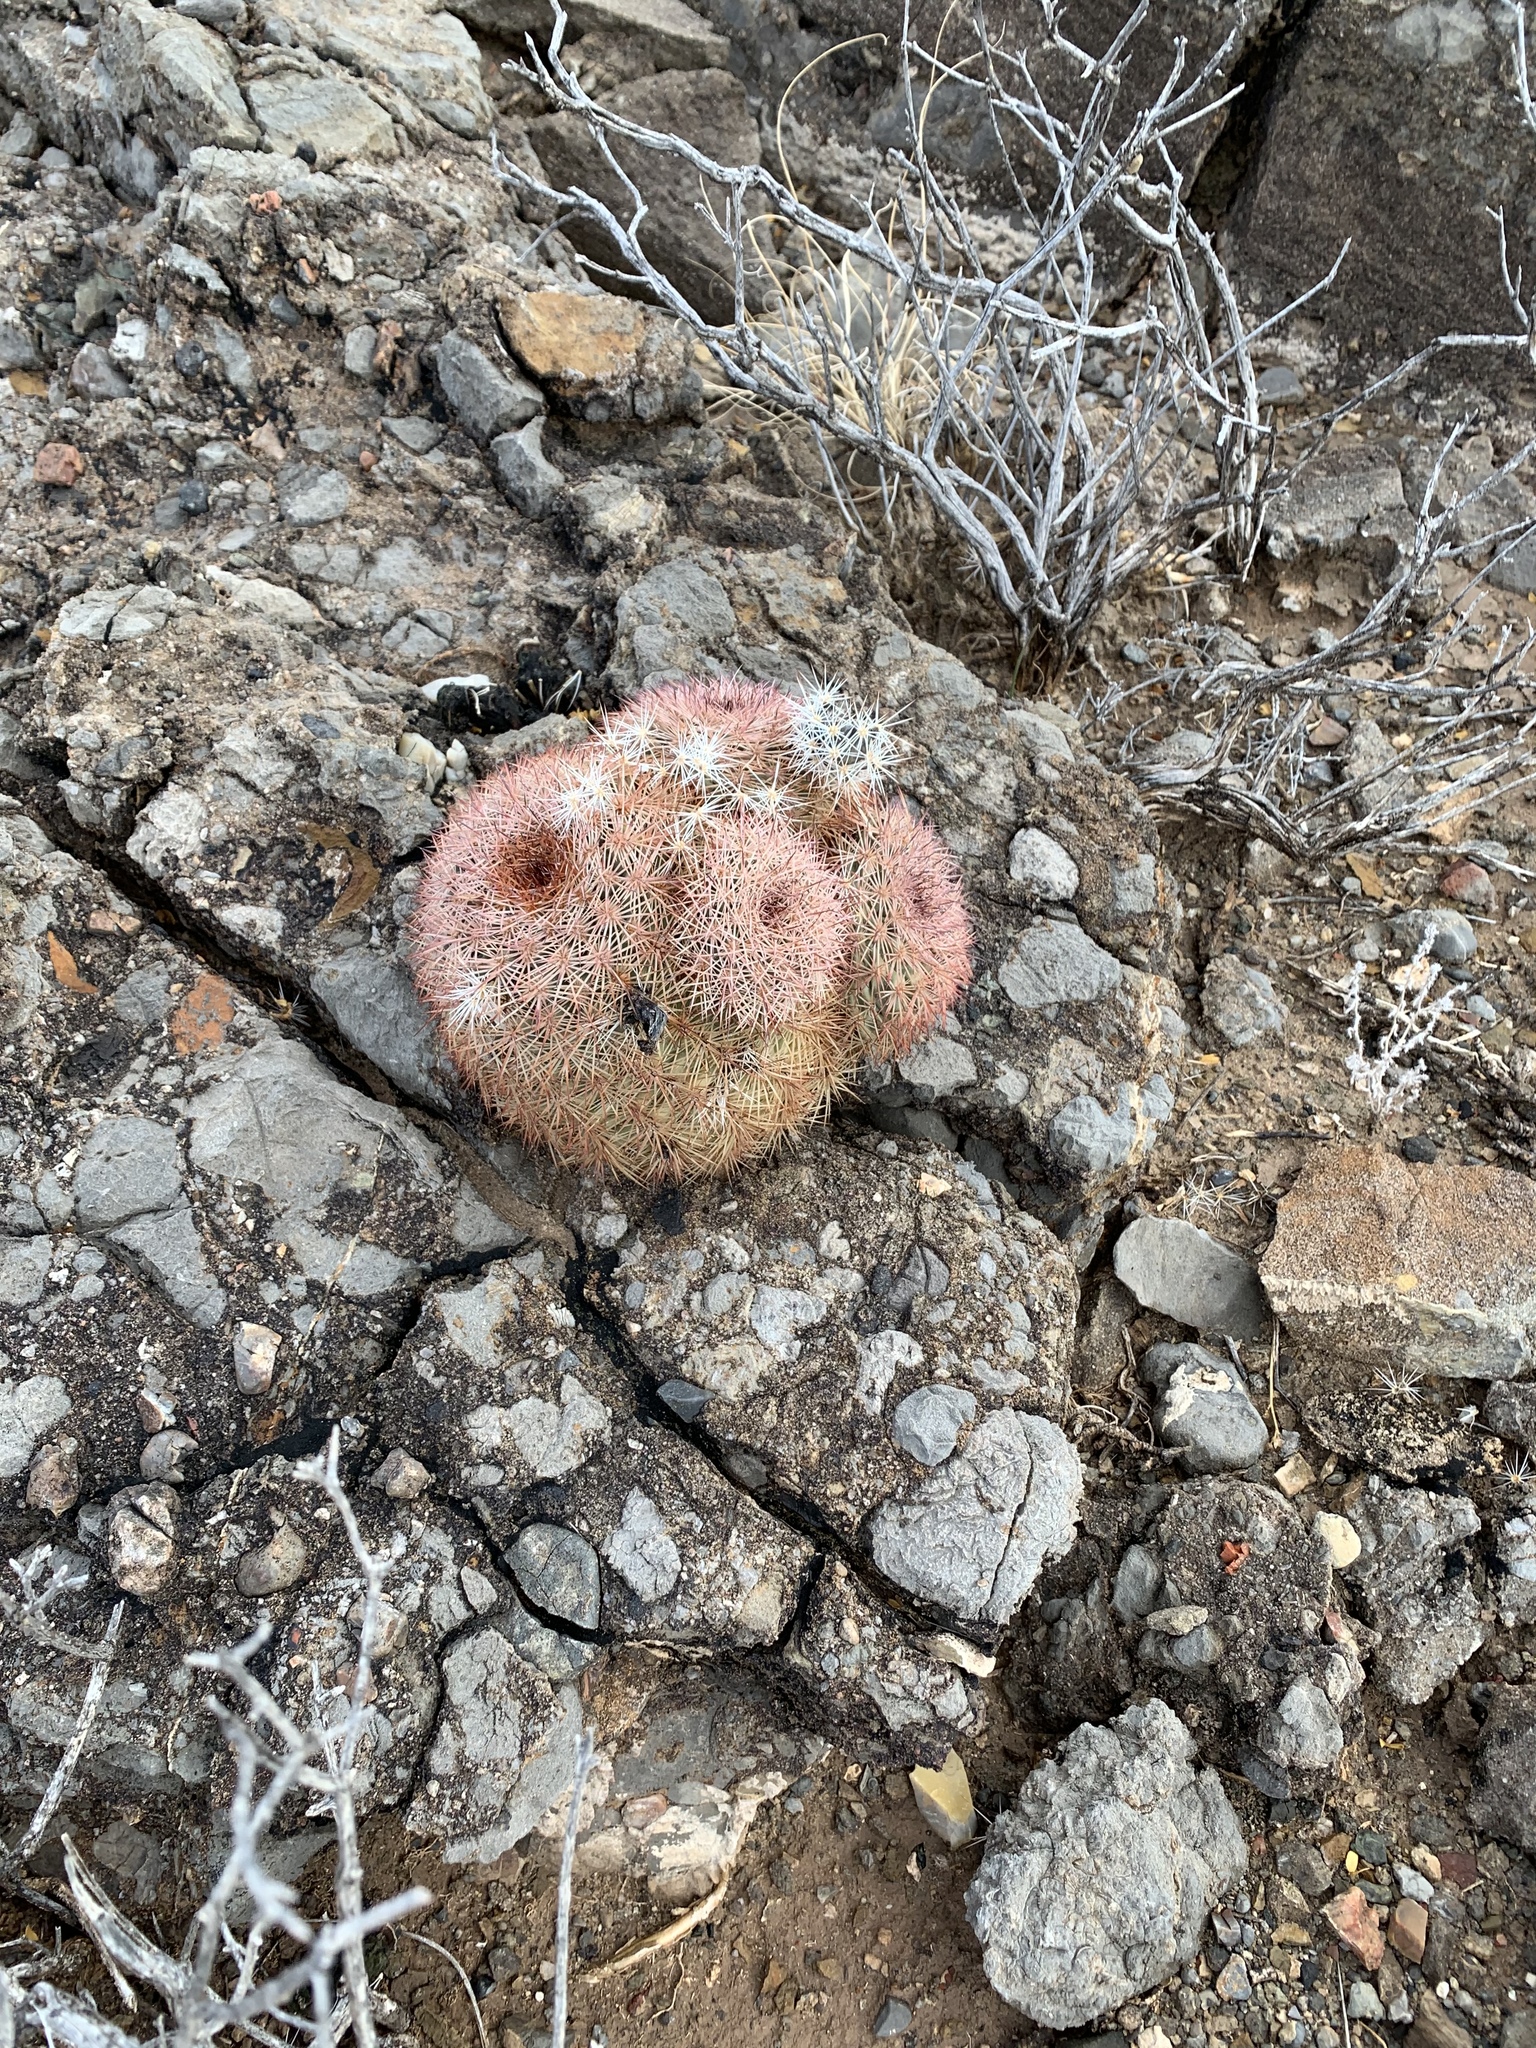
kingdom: Plantae
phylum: Tracheophyta
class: Magnoliopsida
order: Caryophyllales
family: Cactaceae
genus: Echinocereus
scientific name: Echinocereus dasyacanthus
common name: Spiny hedgehog cactus
